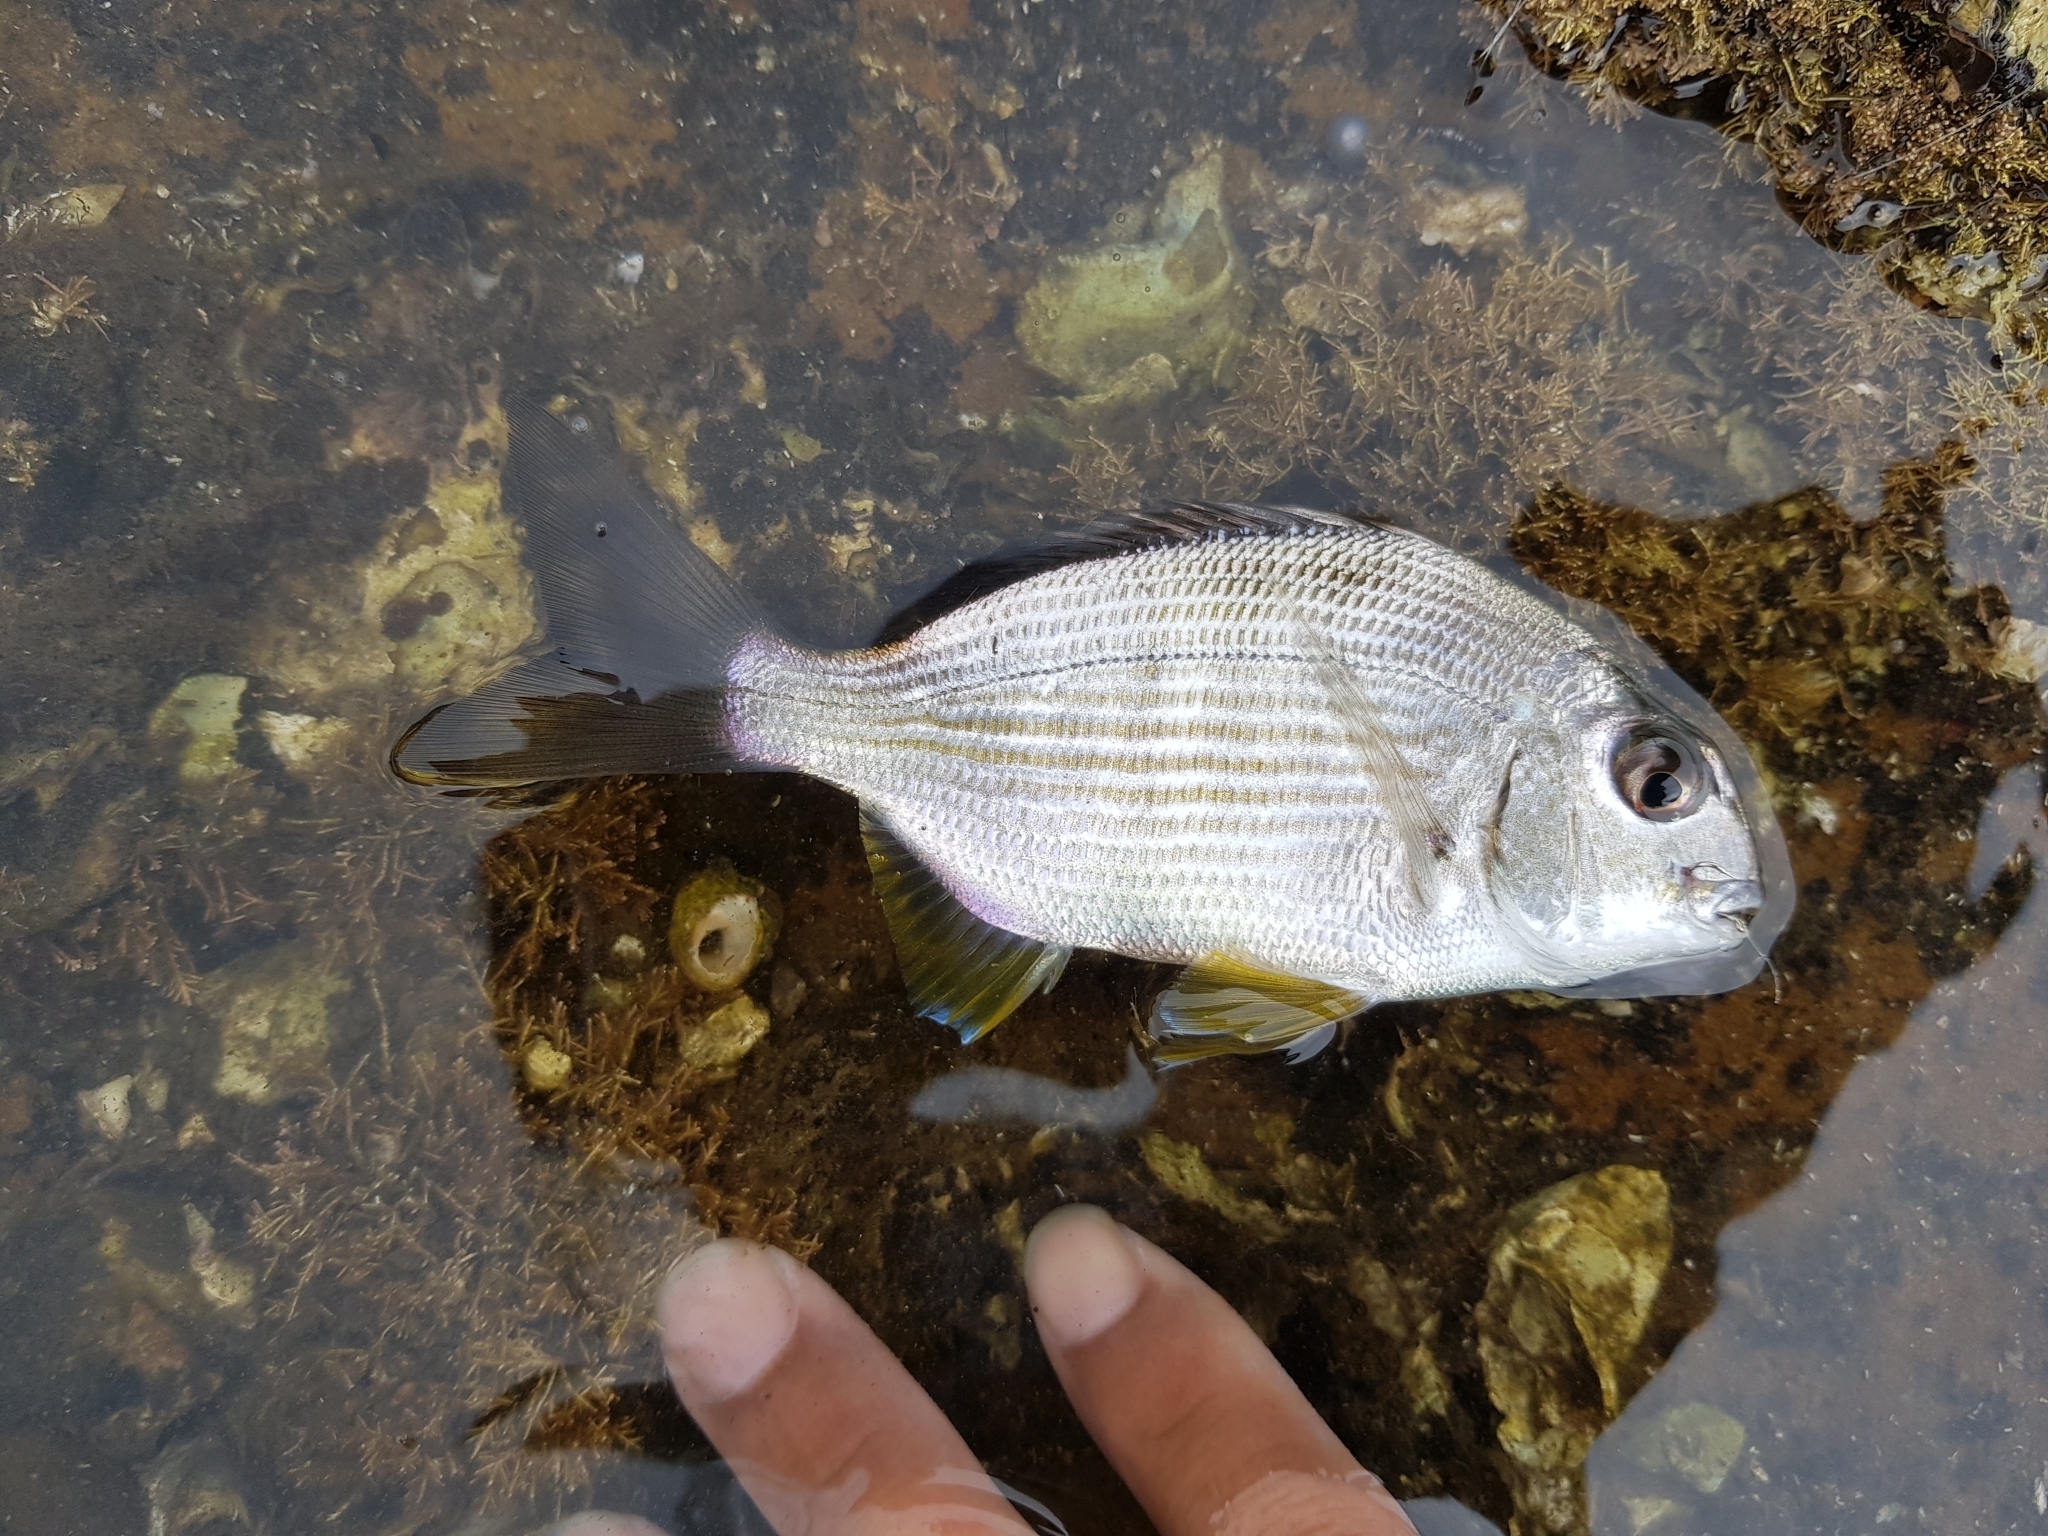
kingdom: Animalia
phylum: Chordata
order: Perciformes
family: Sparidae
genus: Rhabdosargus
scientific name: Rhabdosargus sarba
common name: Goldlined seabream
